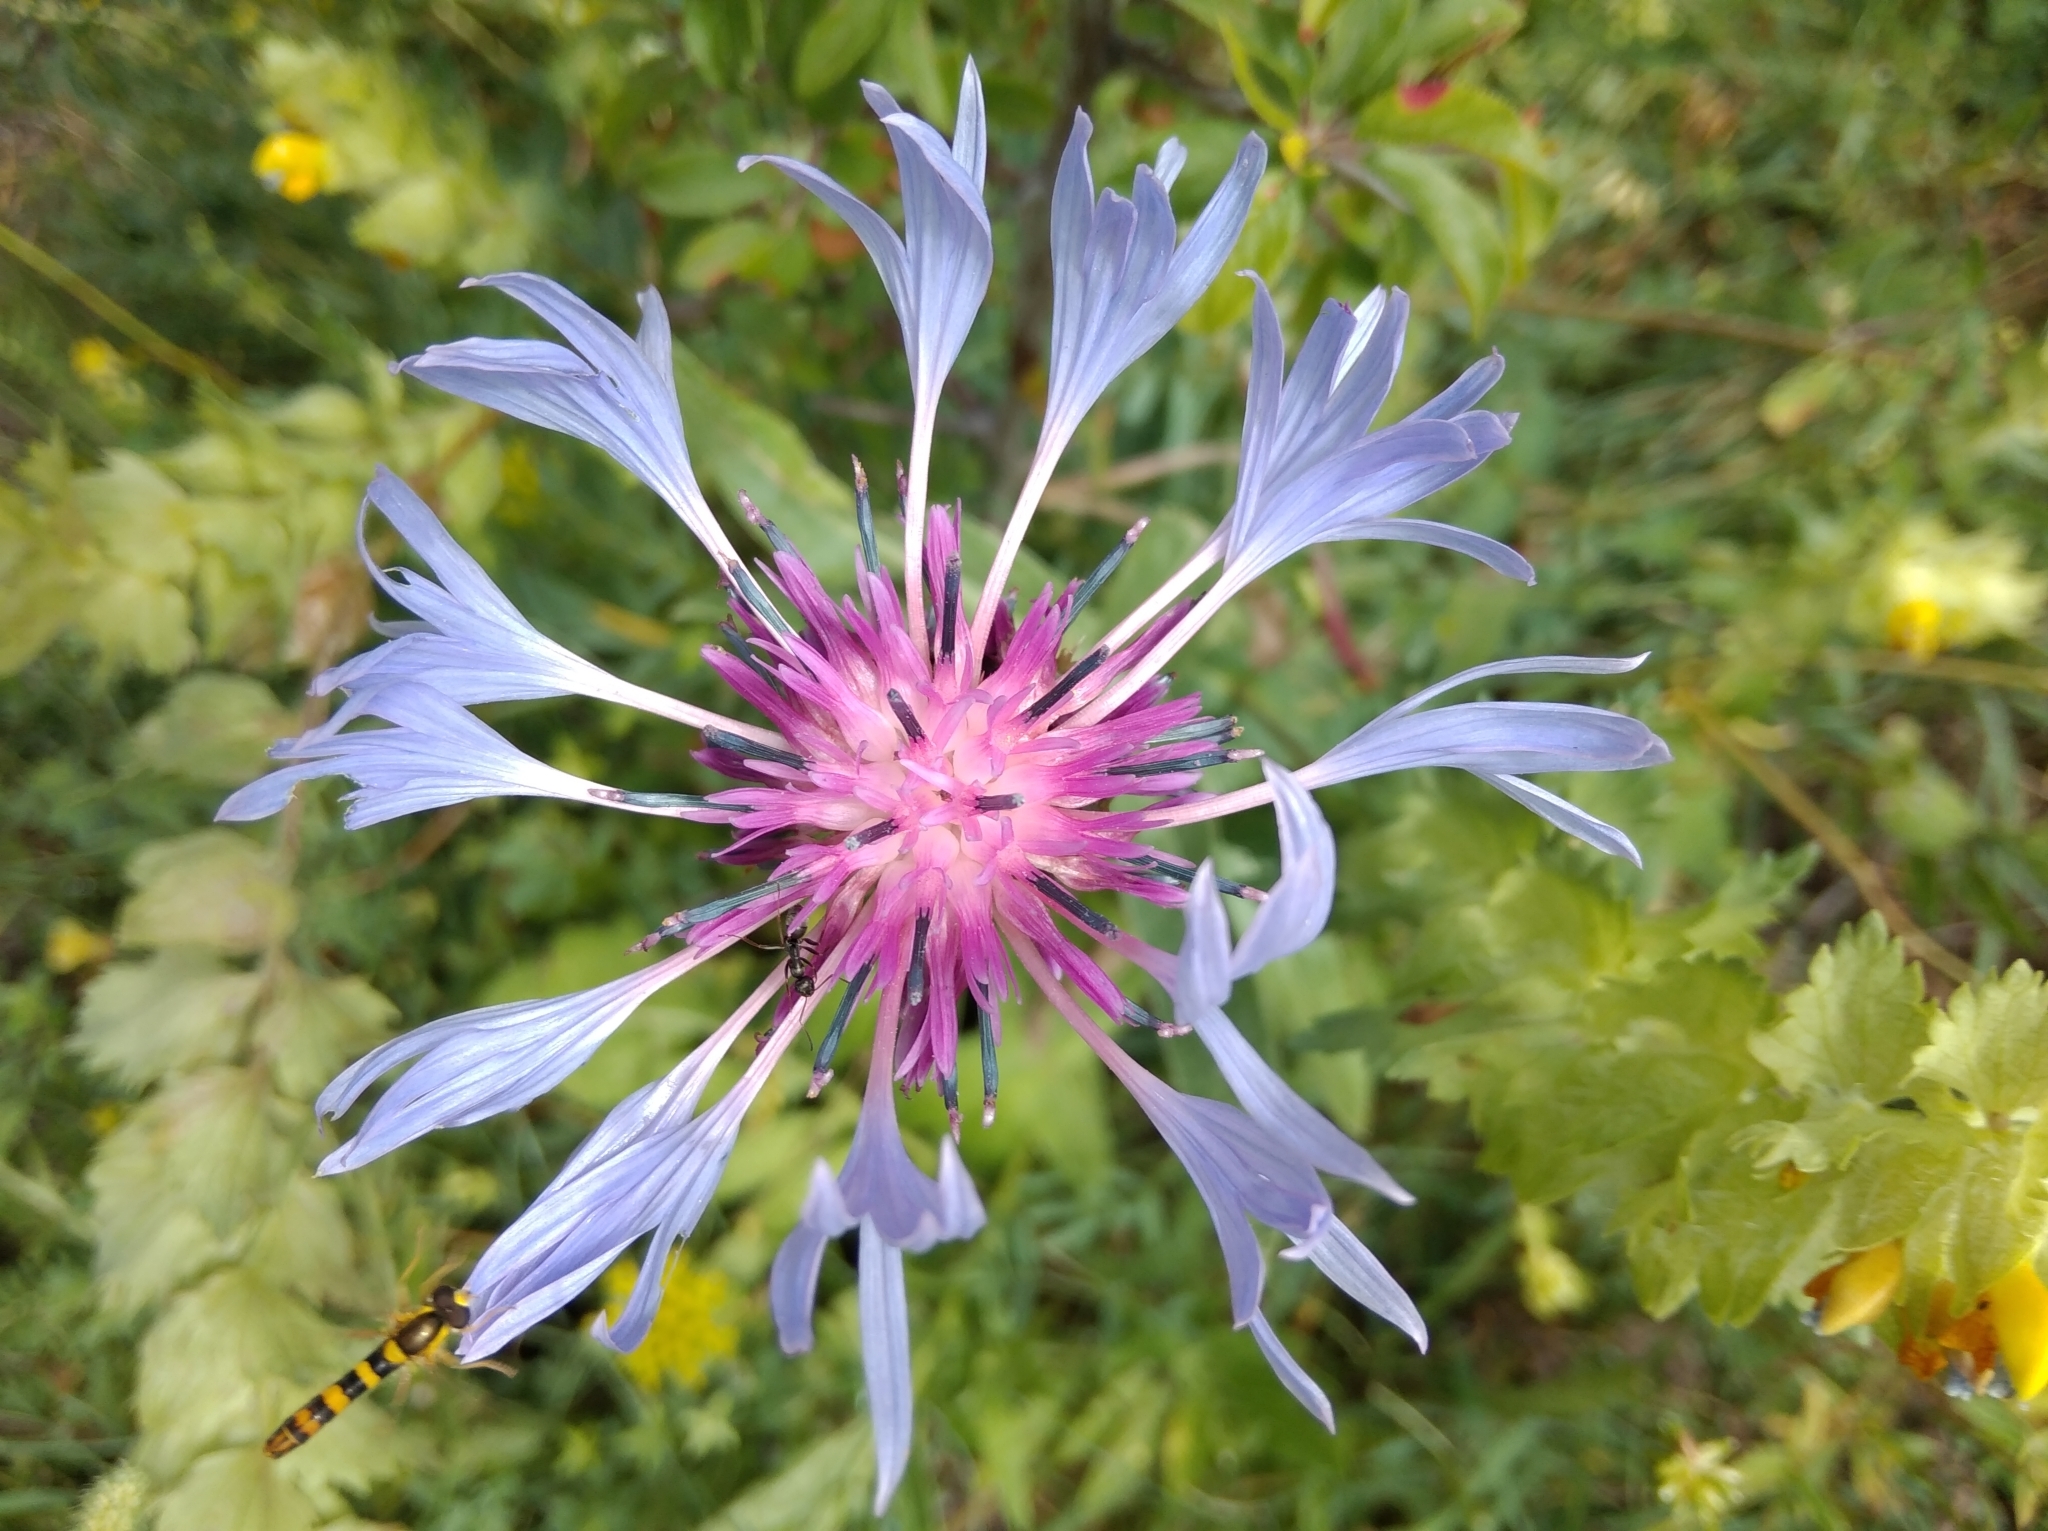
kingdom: Plantae
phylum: Tracheophyta
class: Magnoliopsida
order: Asterales
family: Asteraceae
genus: Centaurea
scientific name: Centaurea montana
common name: Perennial cornflower
